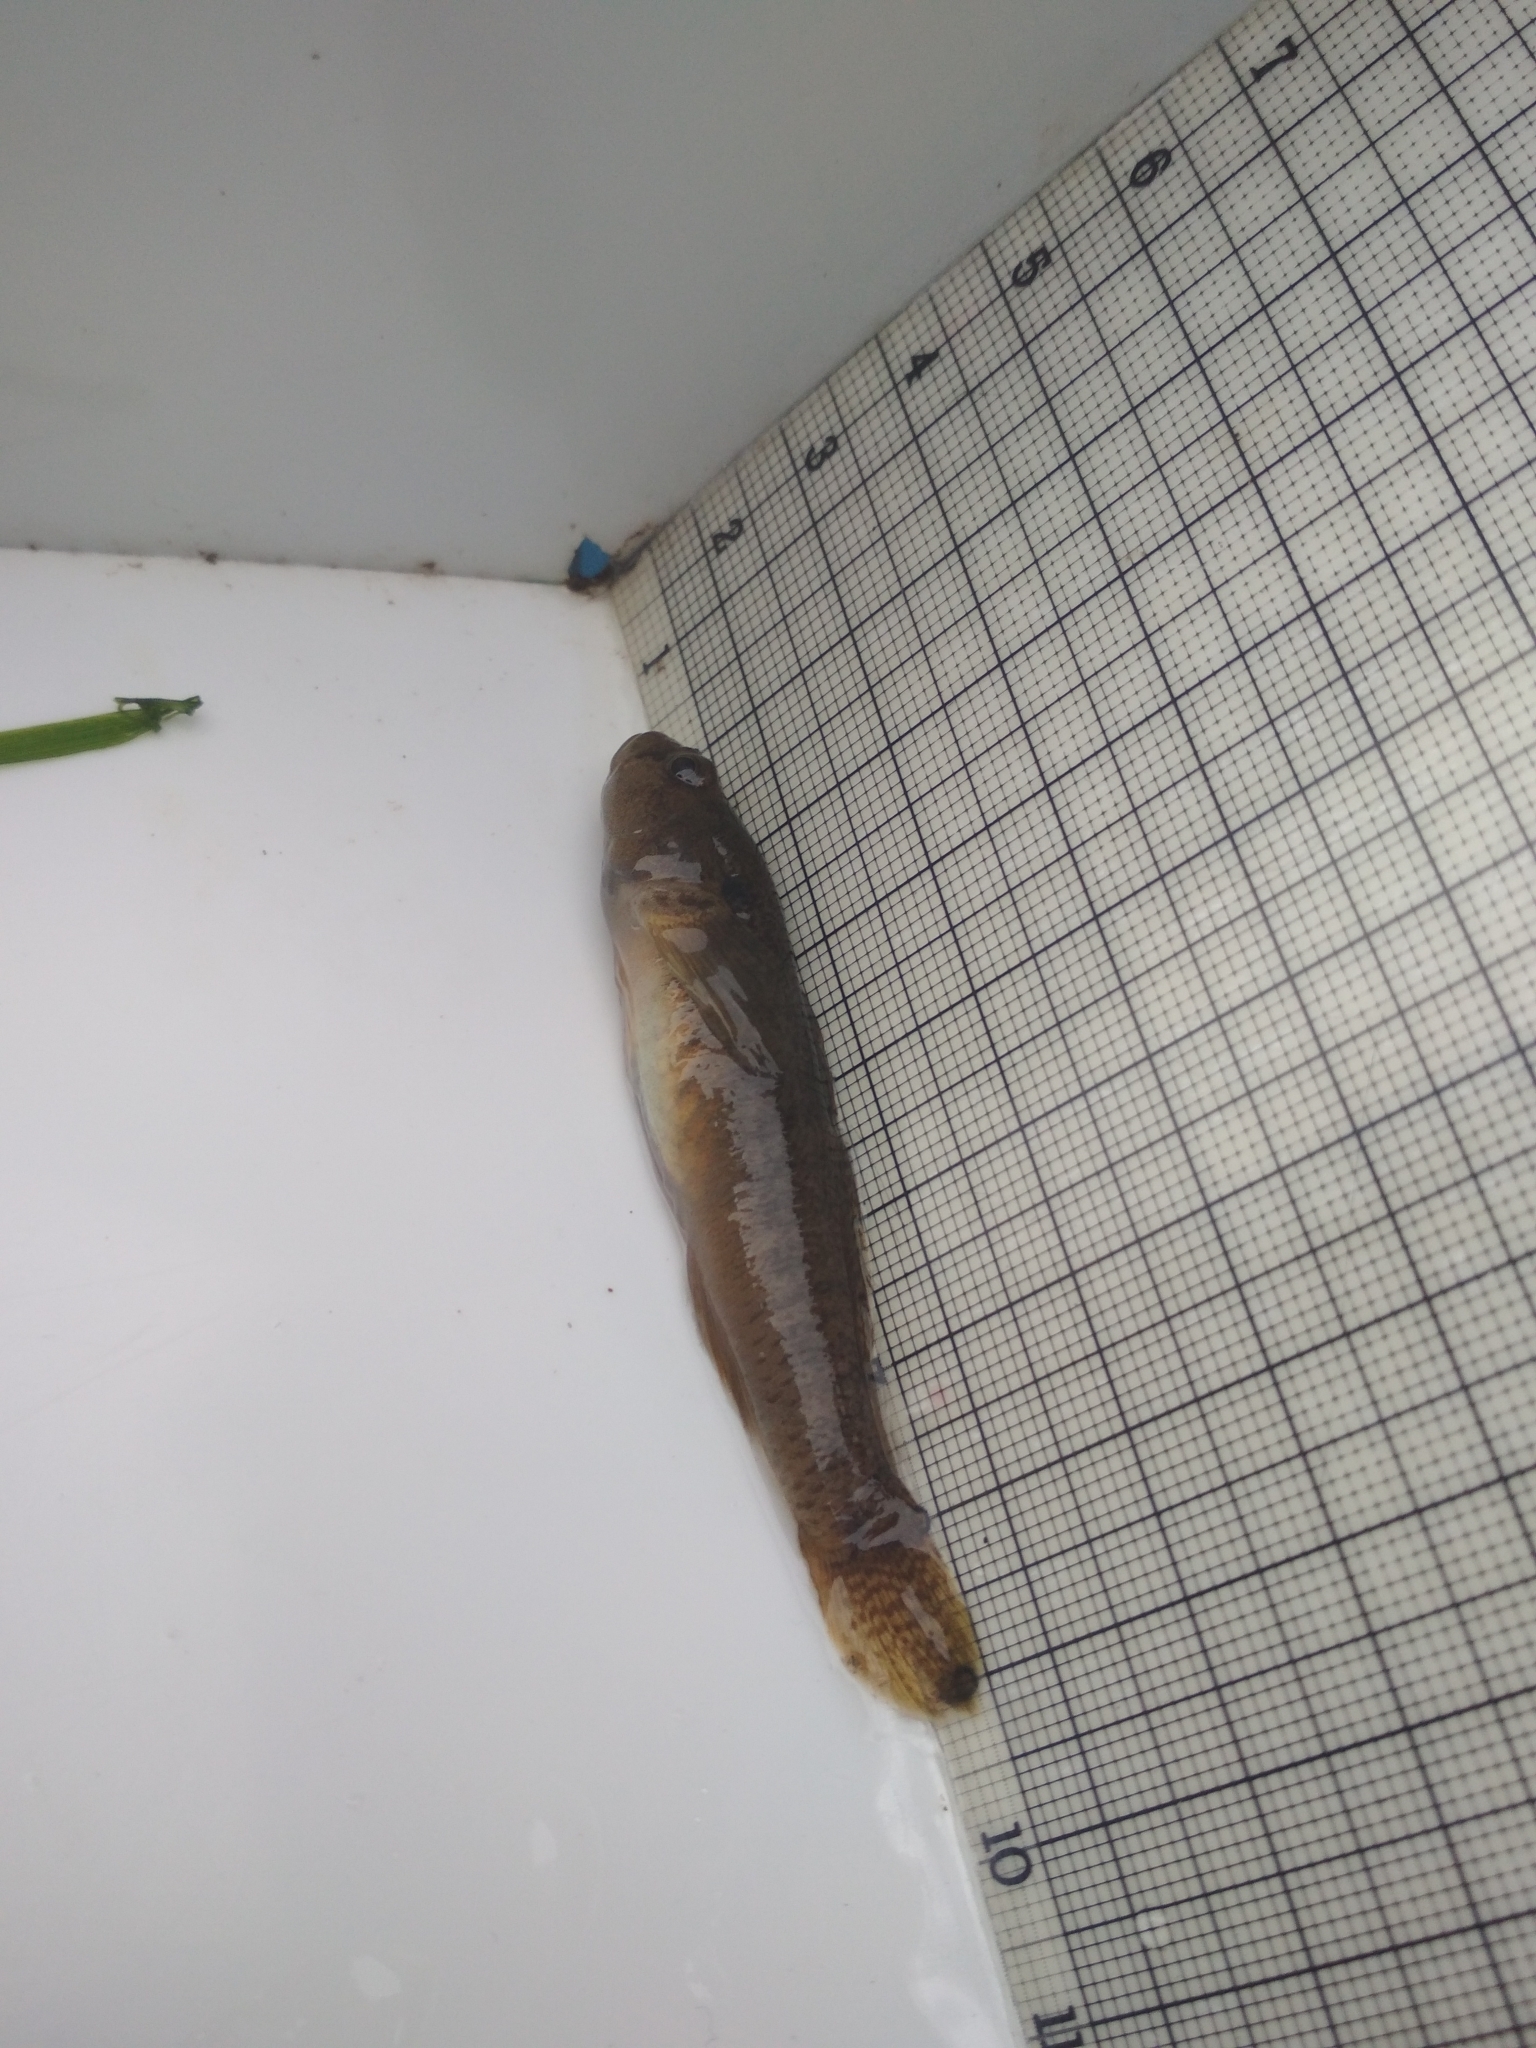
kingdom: Animalia
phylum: Chordata
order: Perciformes
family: Gobiidae
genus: Padogobius
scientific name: Padogobius bonelli
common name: Padanian goby
